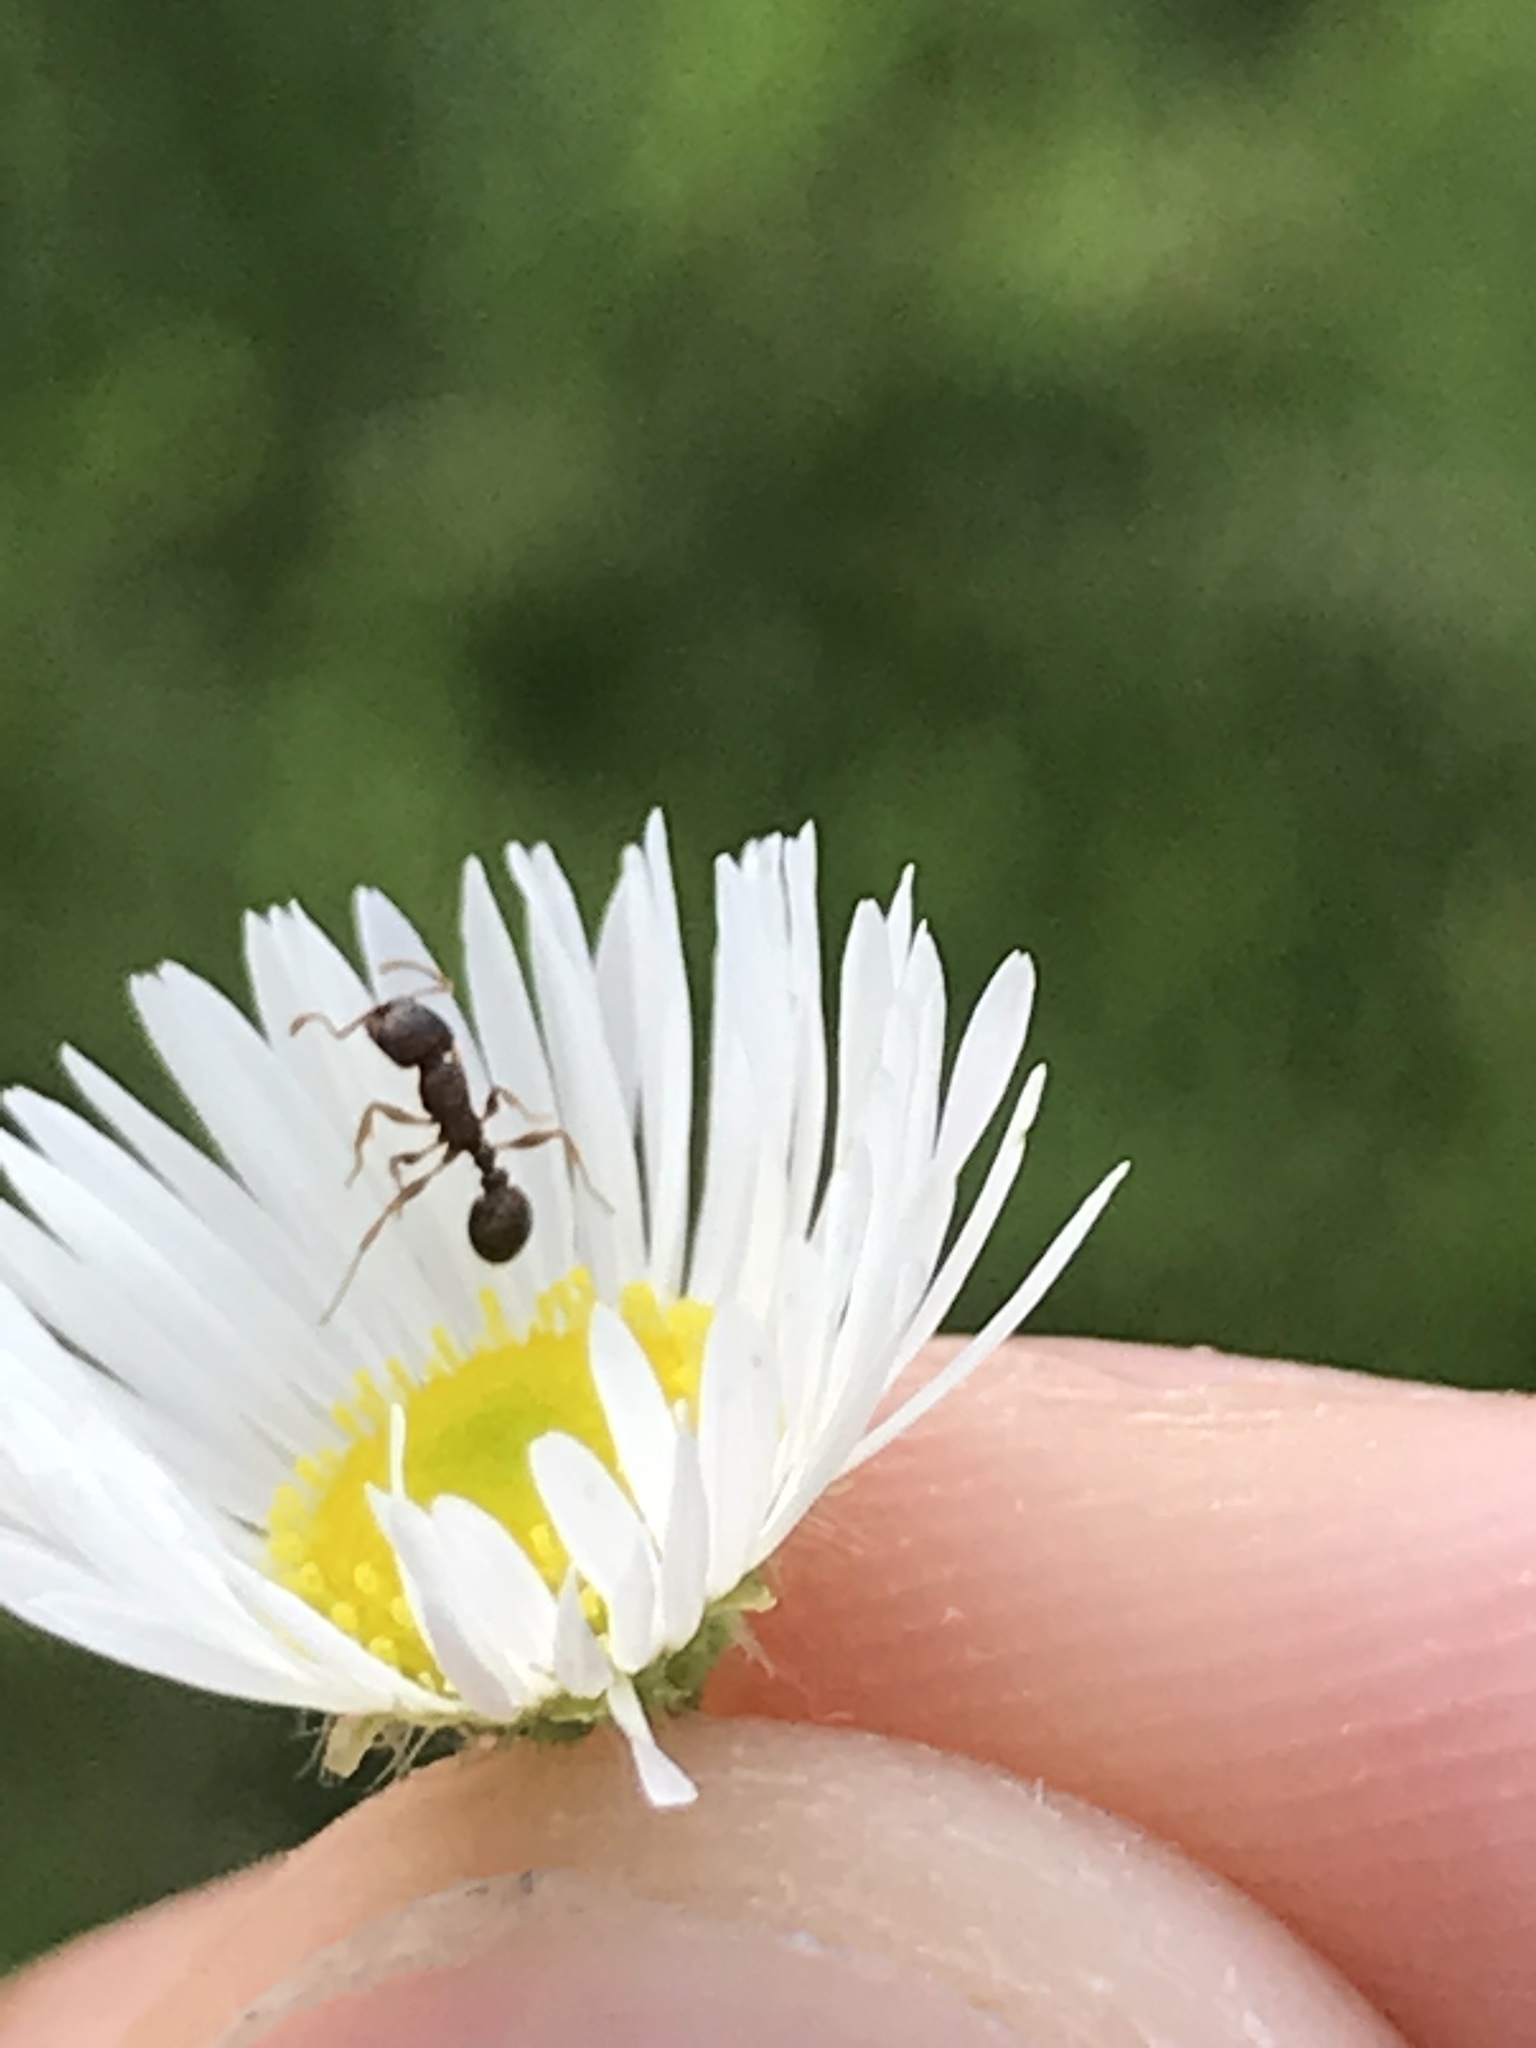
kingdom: Animalia
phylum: Arthropoda
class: Insecta
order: Hymenoptera
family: Formicidae
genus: Tetramorium
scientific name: Tetramorium immigrans
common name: Pavement ant
